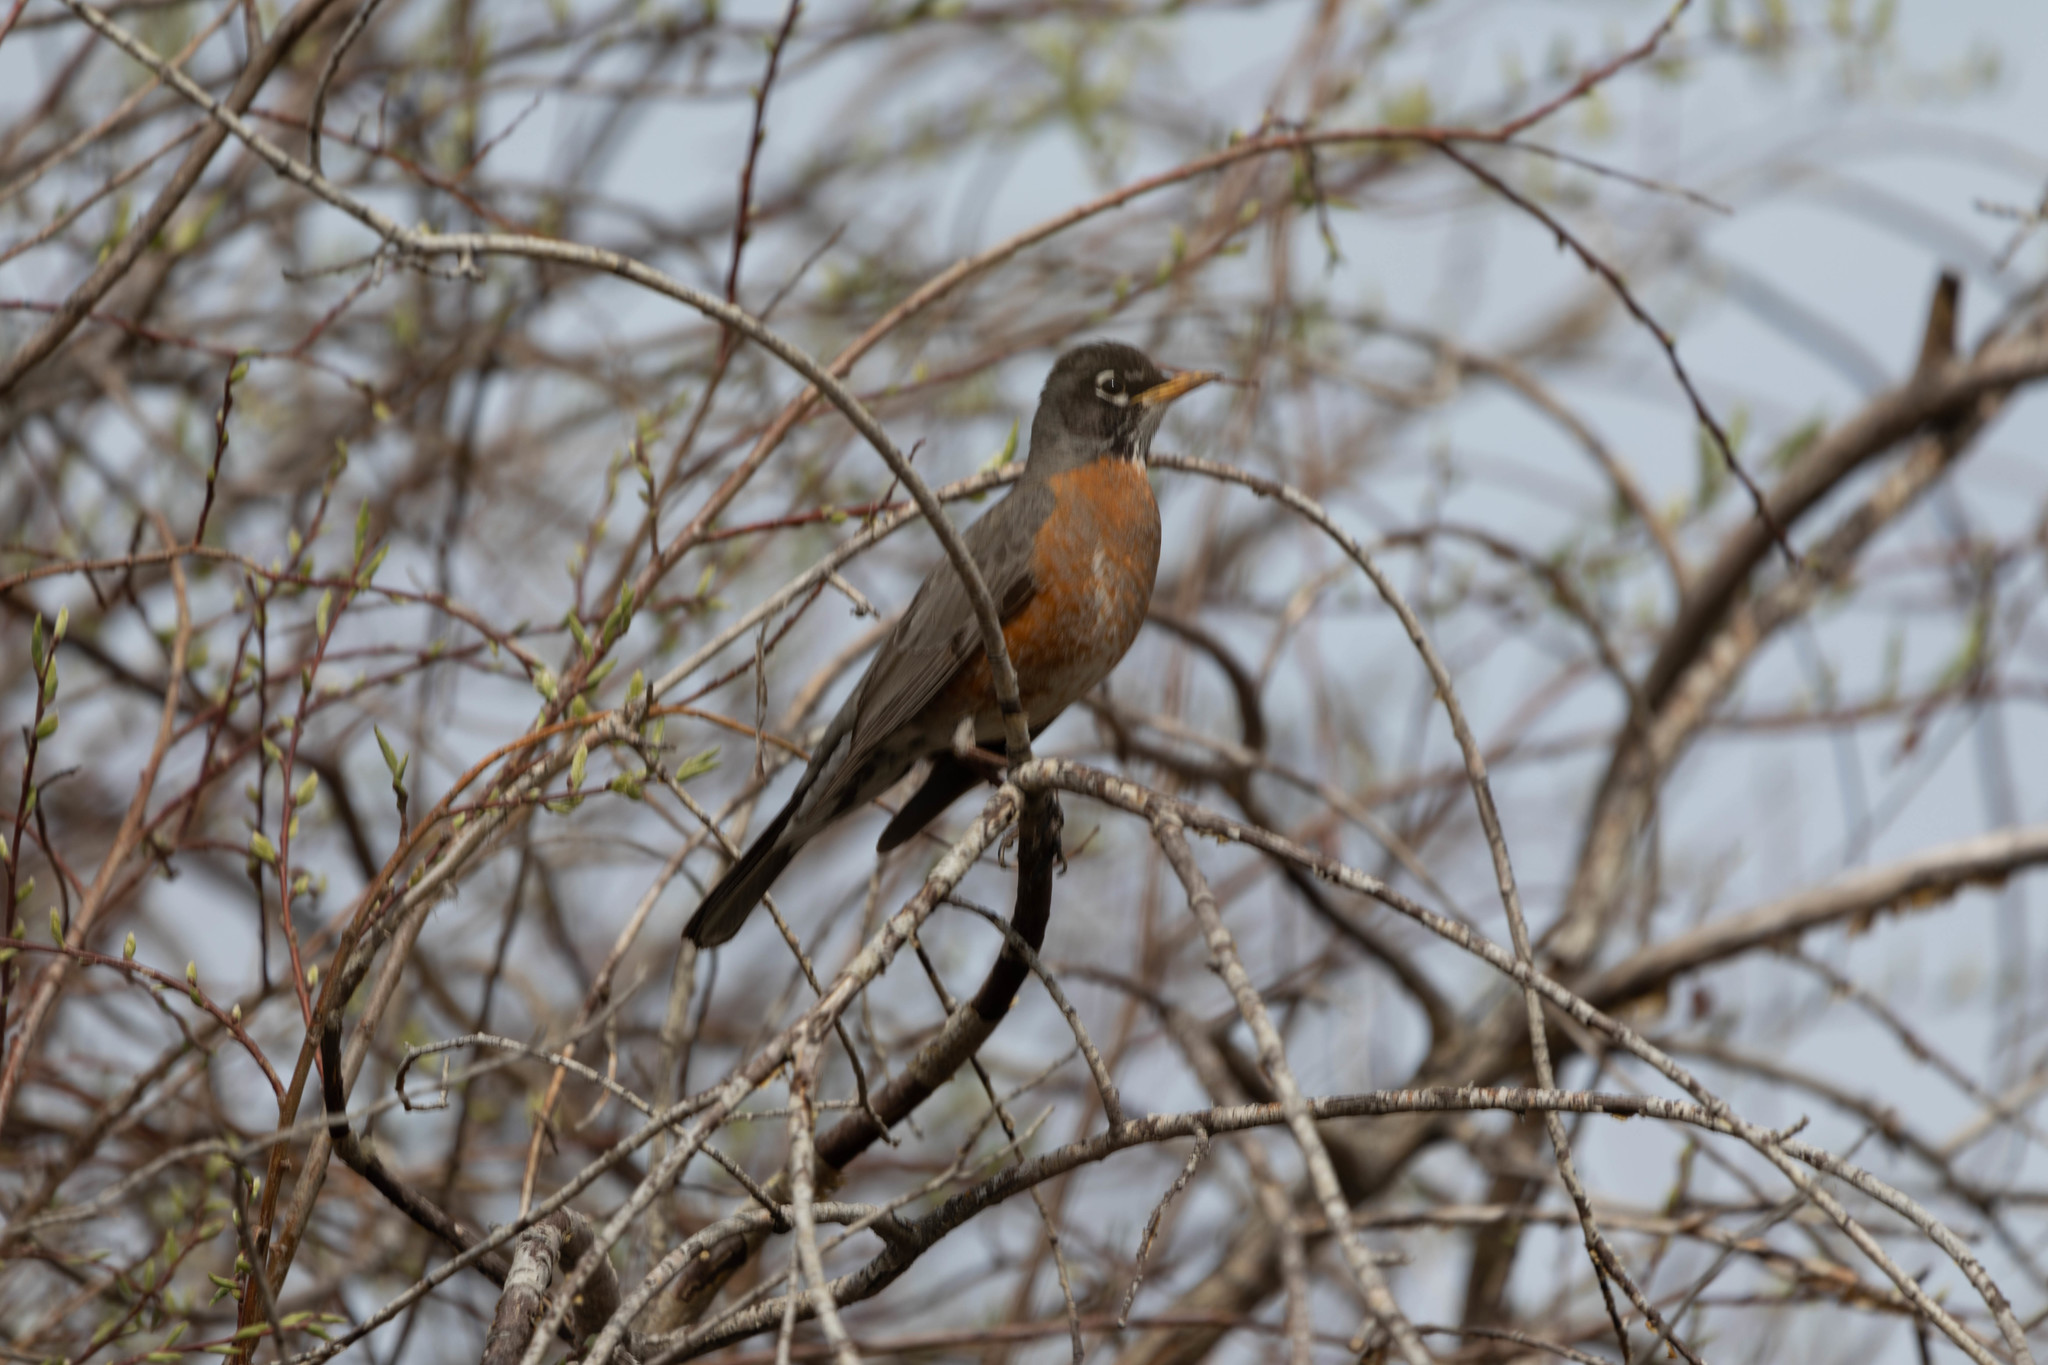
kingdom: Animalia
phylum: Chordata
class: Aves
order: Passeriformes
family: Turdidae
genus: Turdus
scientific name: Turdus migratorius
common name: American robin
